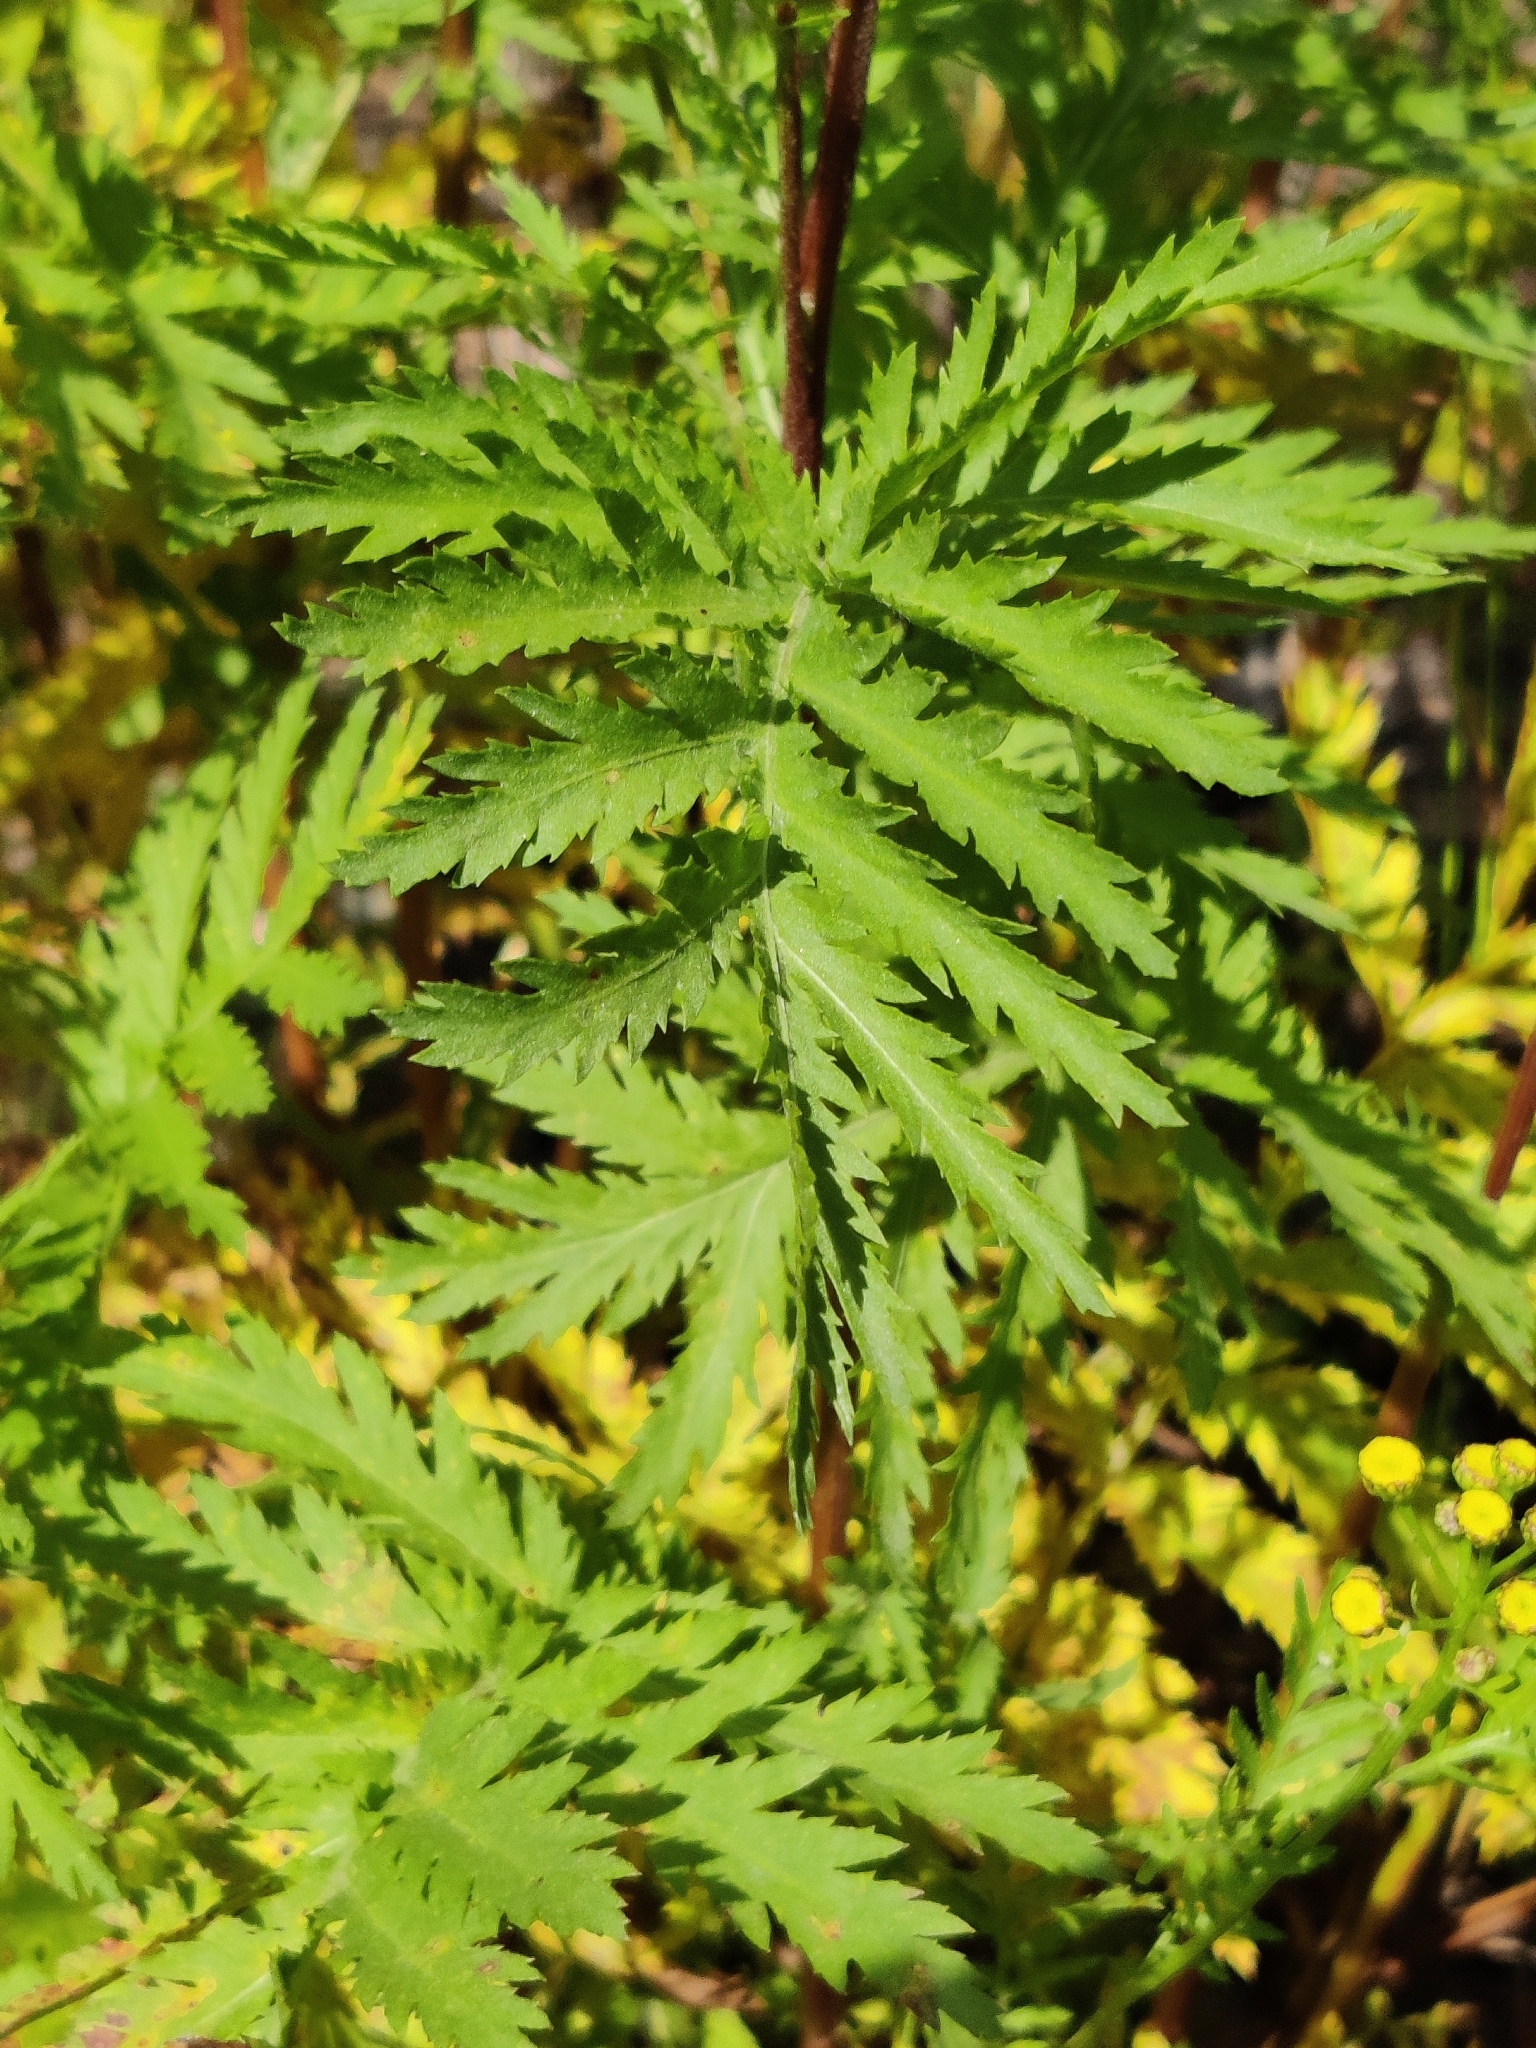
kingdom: Plantae
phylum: Tracheophyta
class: Magnoliopsida
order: Asterales
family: Asteraceae
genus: Tanacetum
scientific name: Tanacetum vulgare
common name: Common tansy
